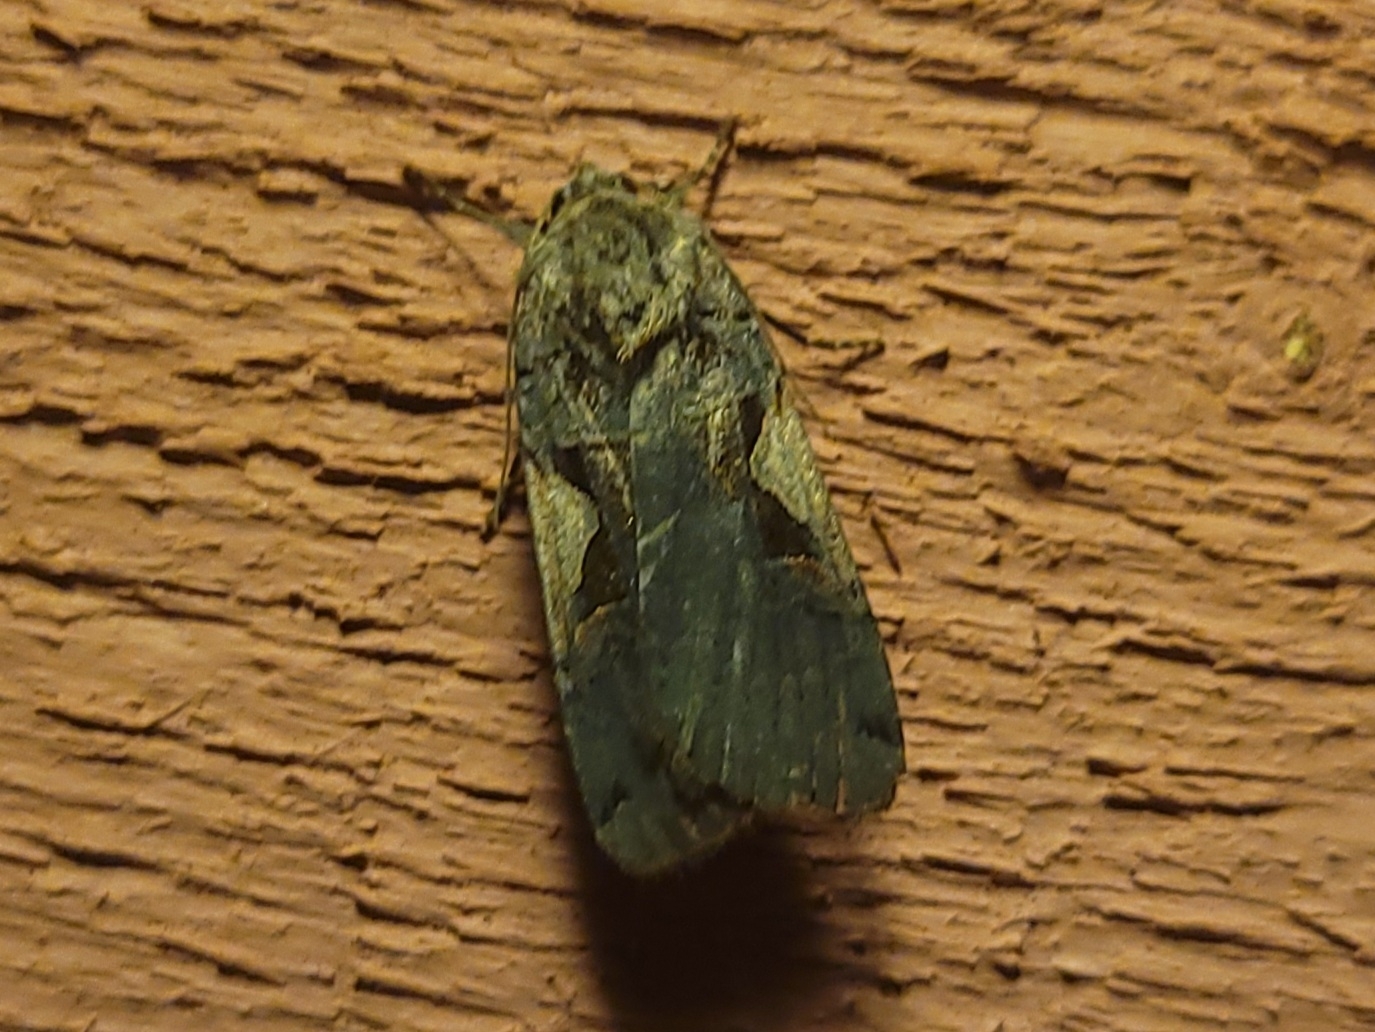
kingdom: Animalia
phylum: Arthropoda
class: Insecta
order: Lepidoptera
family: Noctuidae
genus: Xestia
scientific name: Xestia
